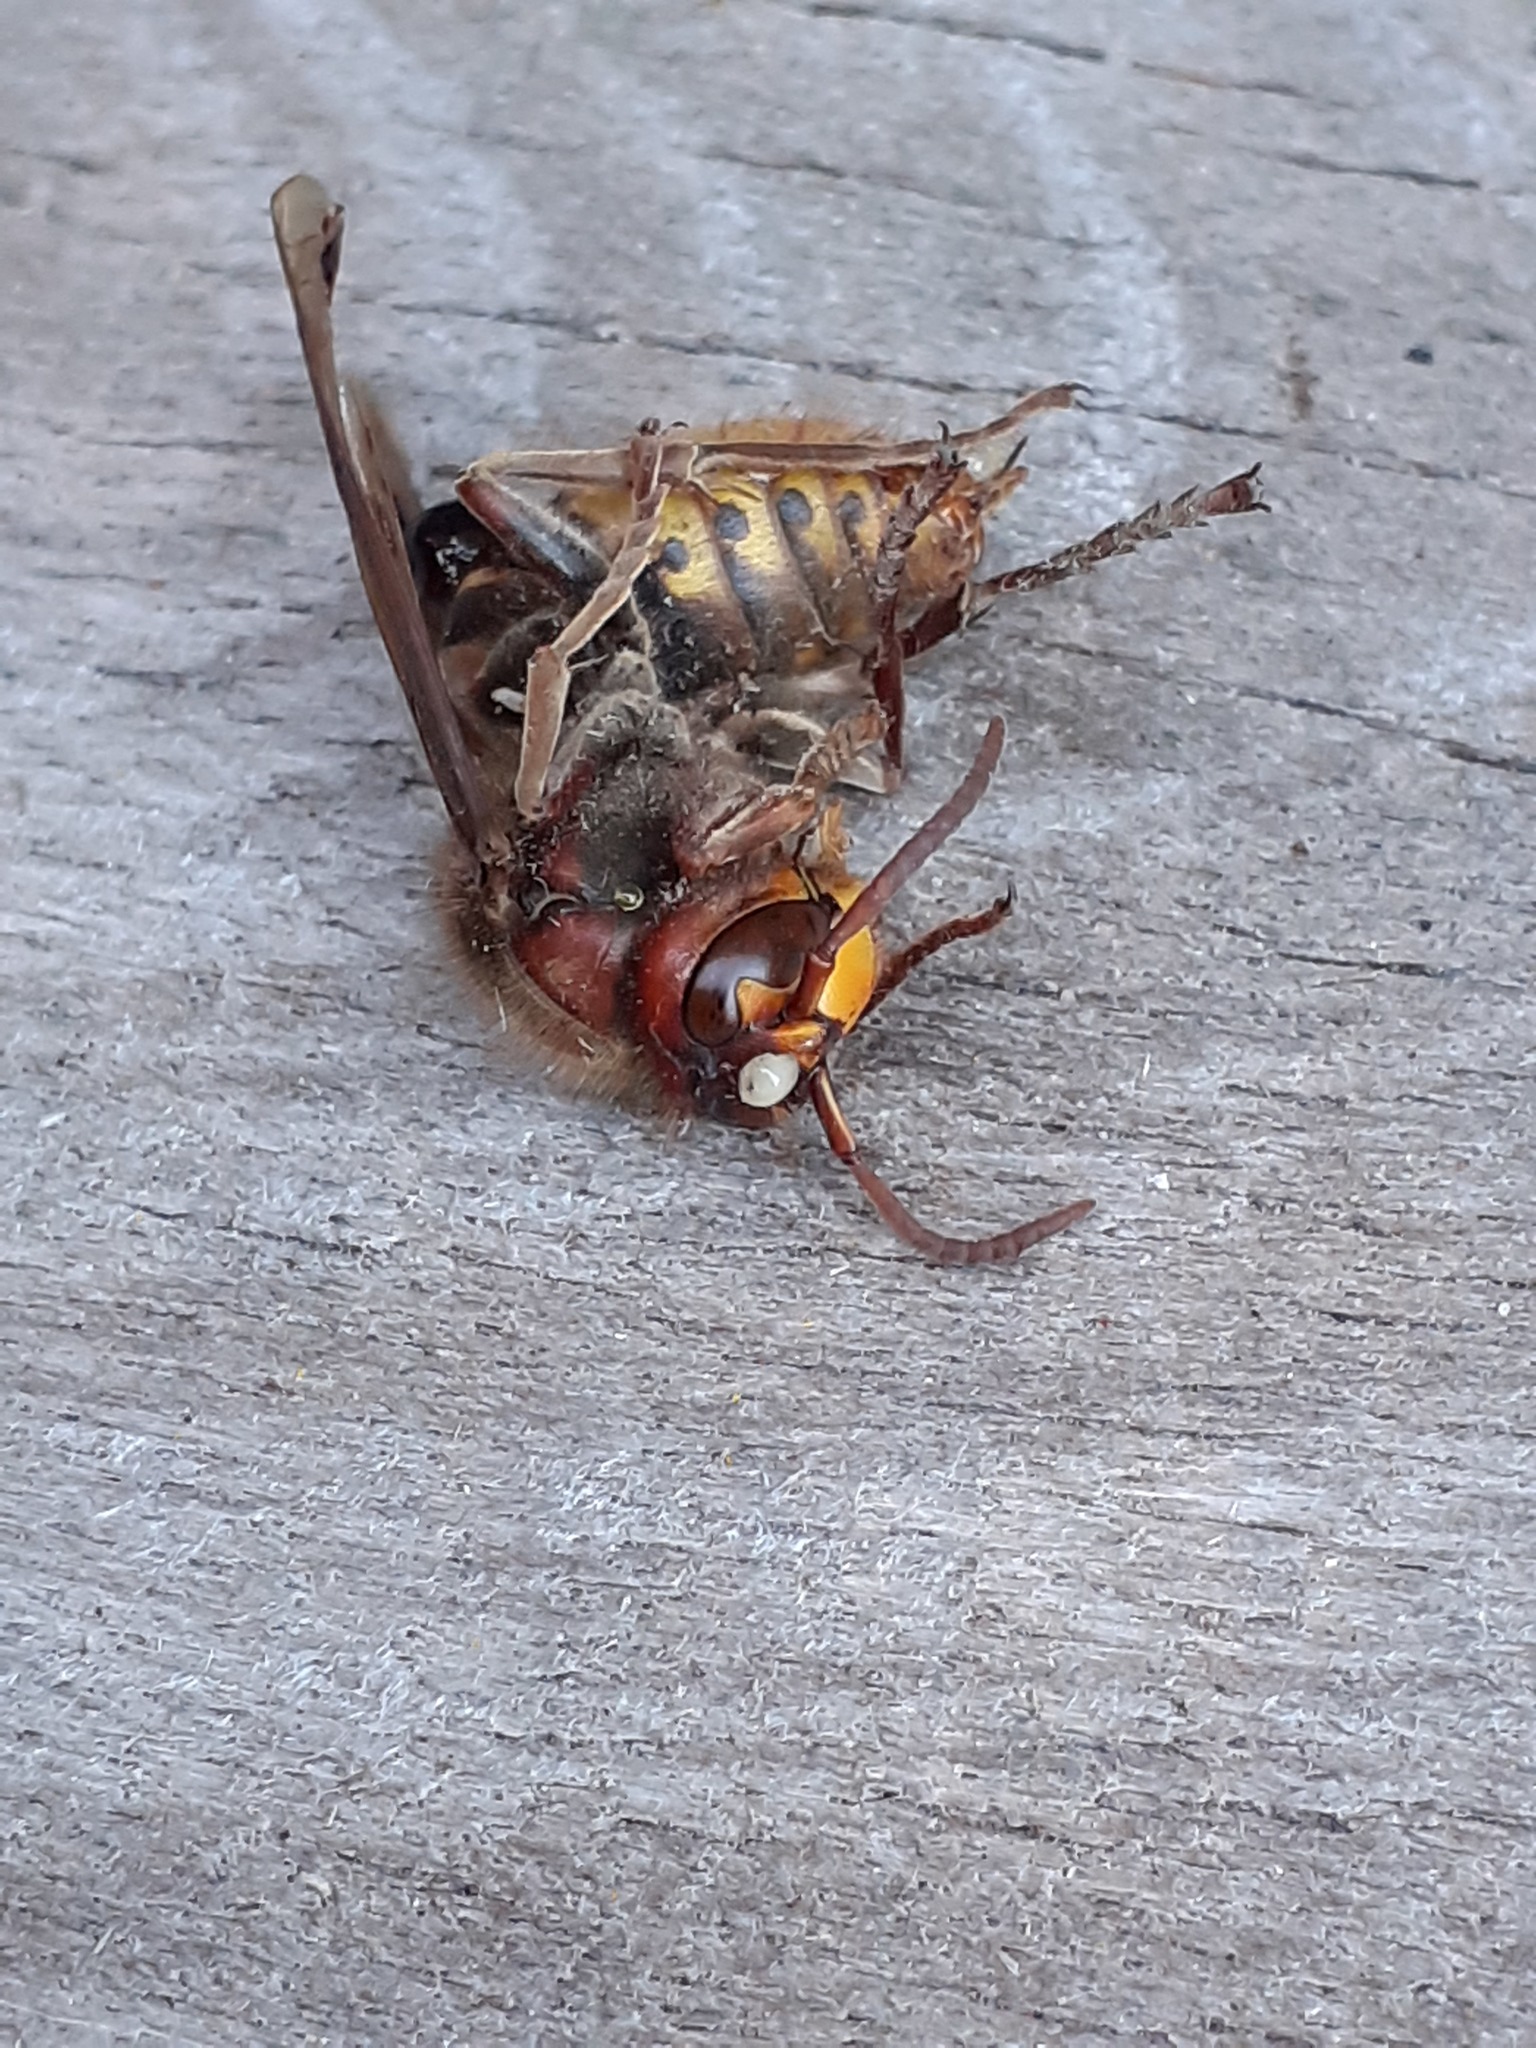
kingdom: Animalia
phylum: Arthropoda
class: Insecta
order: Hymenoptera
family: Vespidae
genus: Vespa
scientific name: Vespa crabro
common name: Hornet
